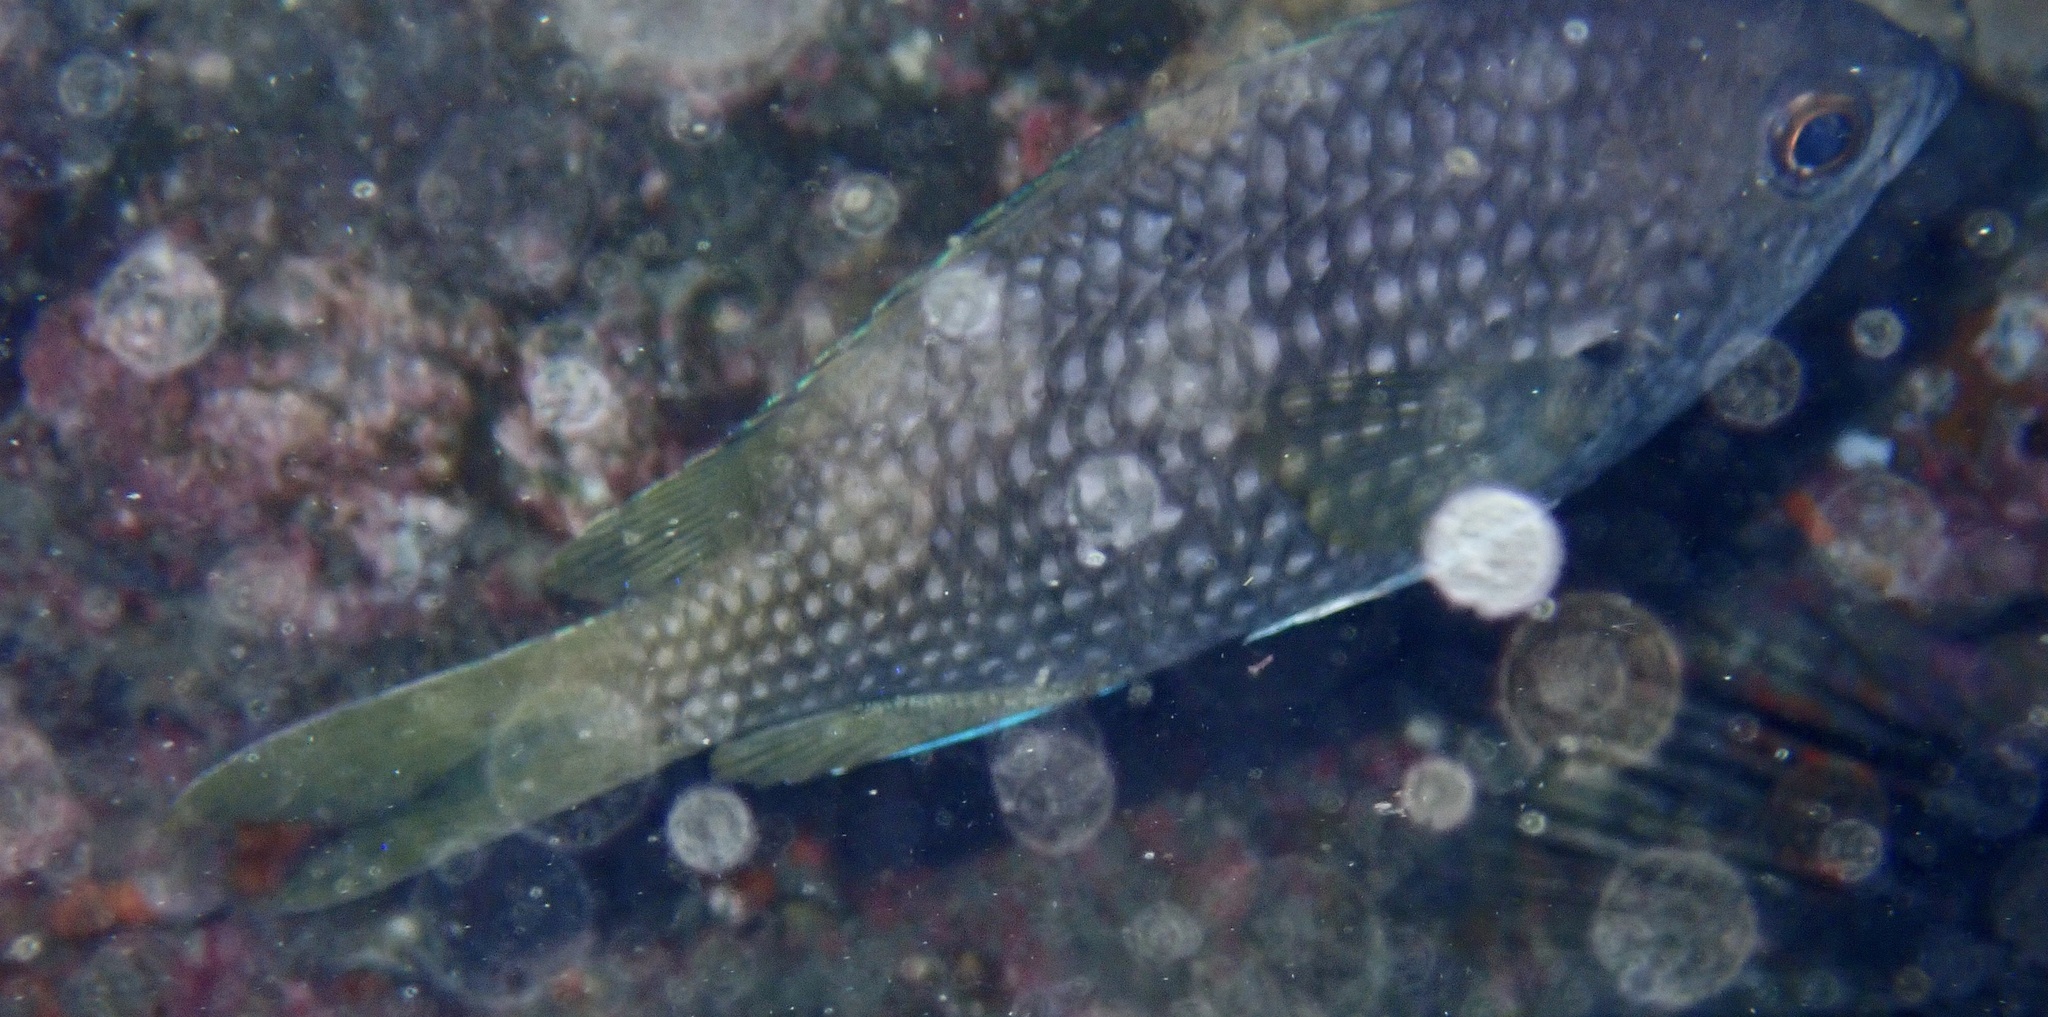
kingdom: Animalia
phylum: Chordata
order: Perciformes
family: Pomacentridae
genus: Chromis
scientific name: Chromis lubbocki
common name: Lubbock's chromis
